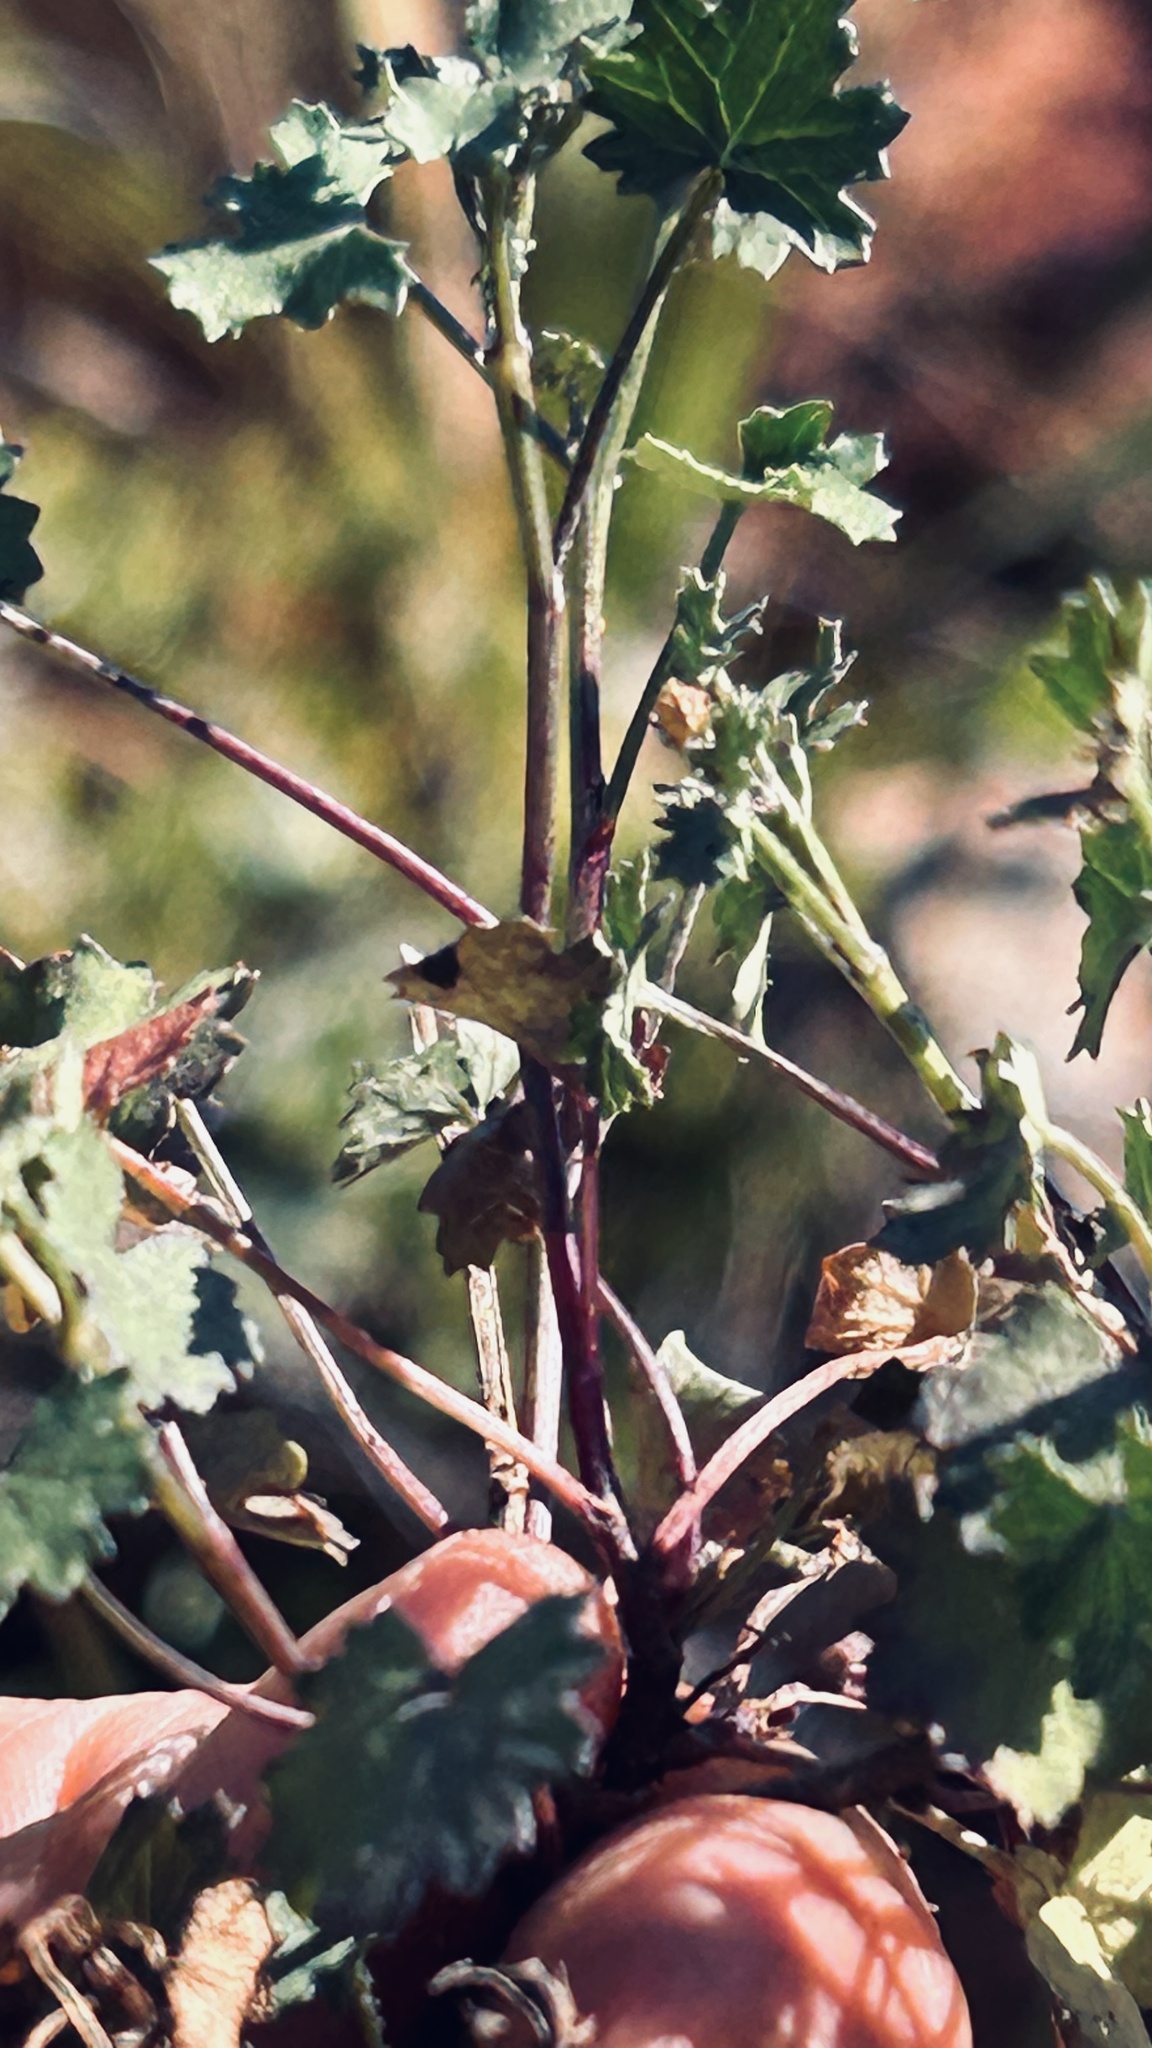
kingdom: Plantae
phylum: Tracheophyta
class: Magnoliopsida
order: Asterales
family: Asteraceae
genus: Cineraria
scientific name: Cineraria platycarpa
